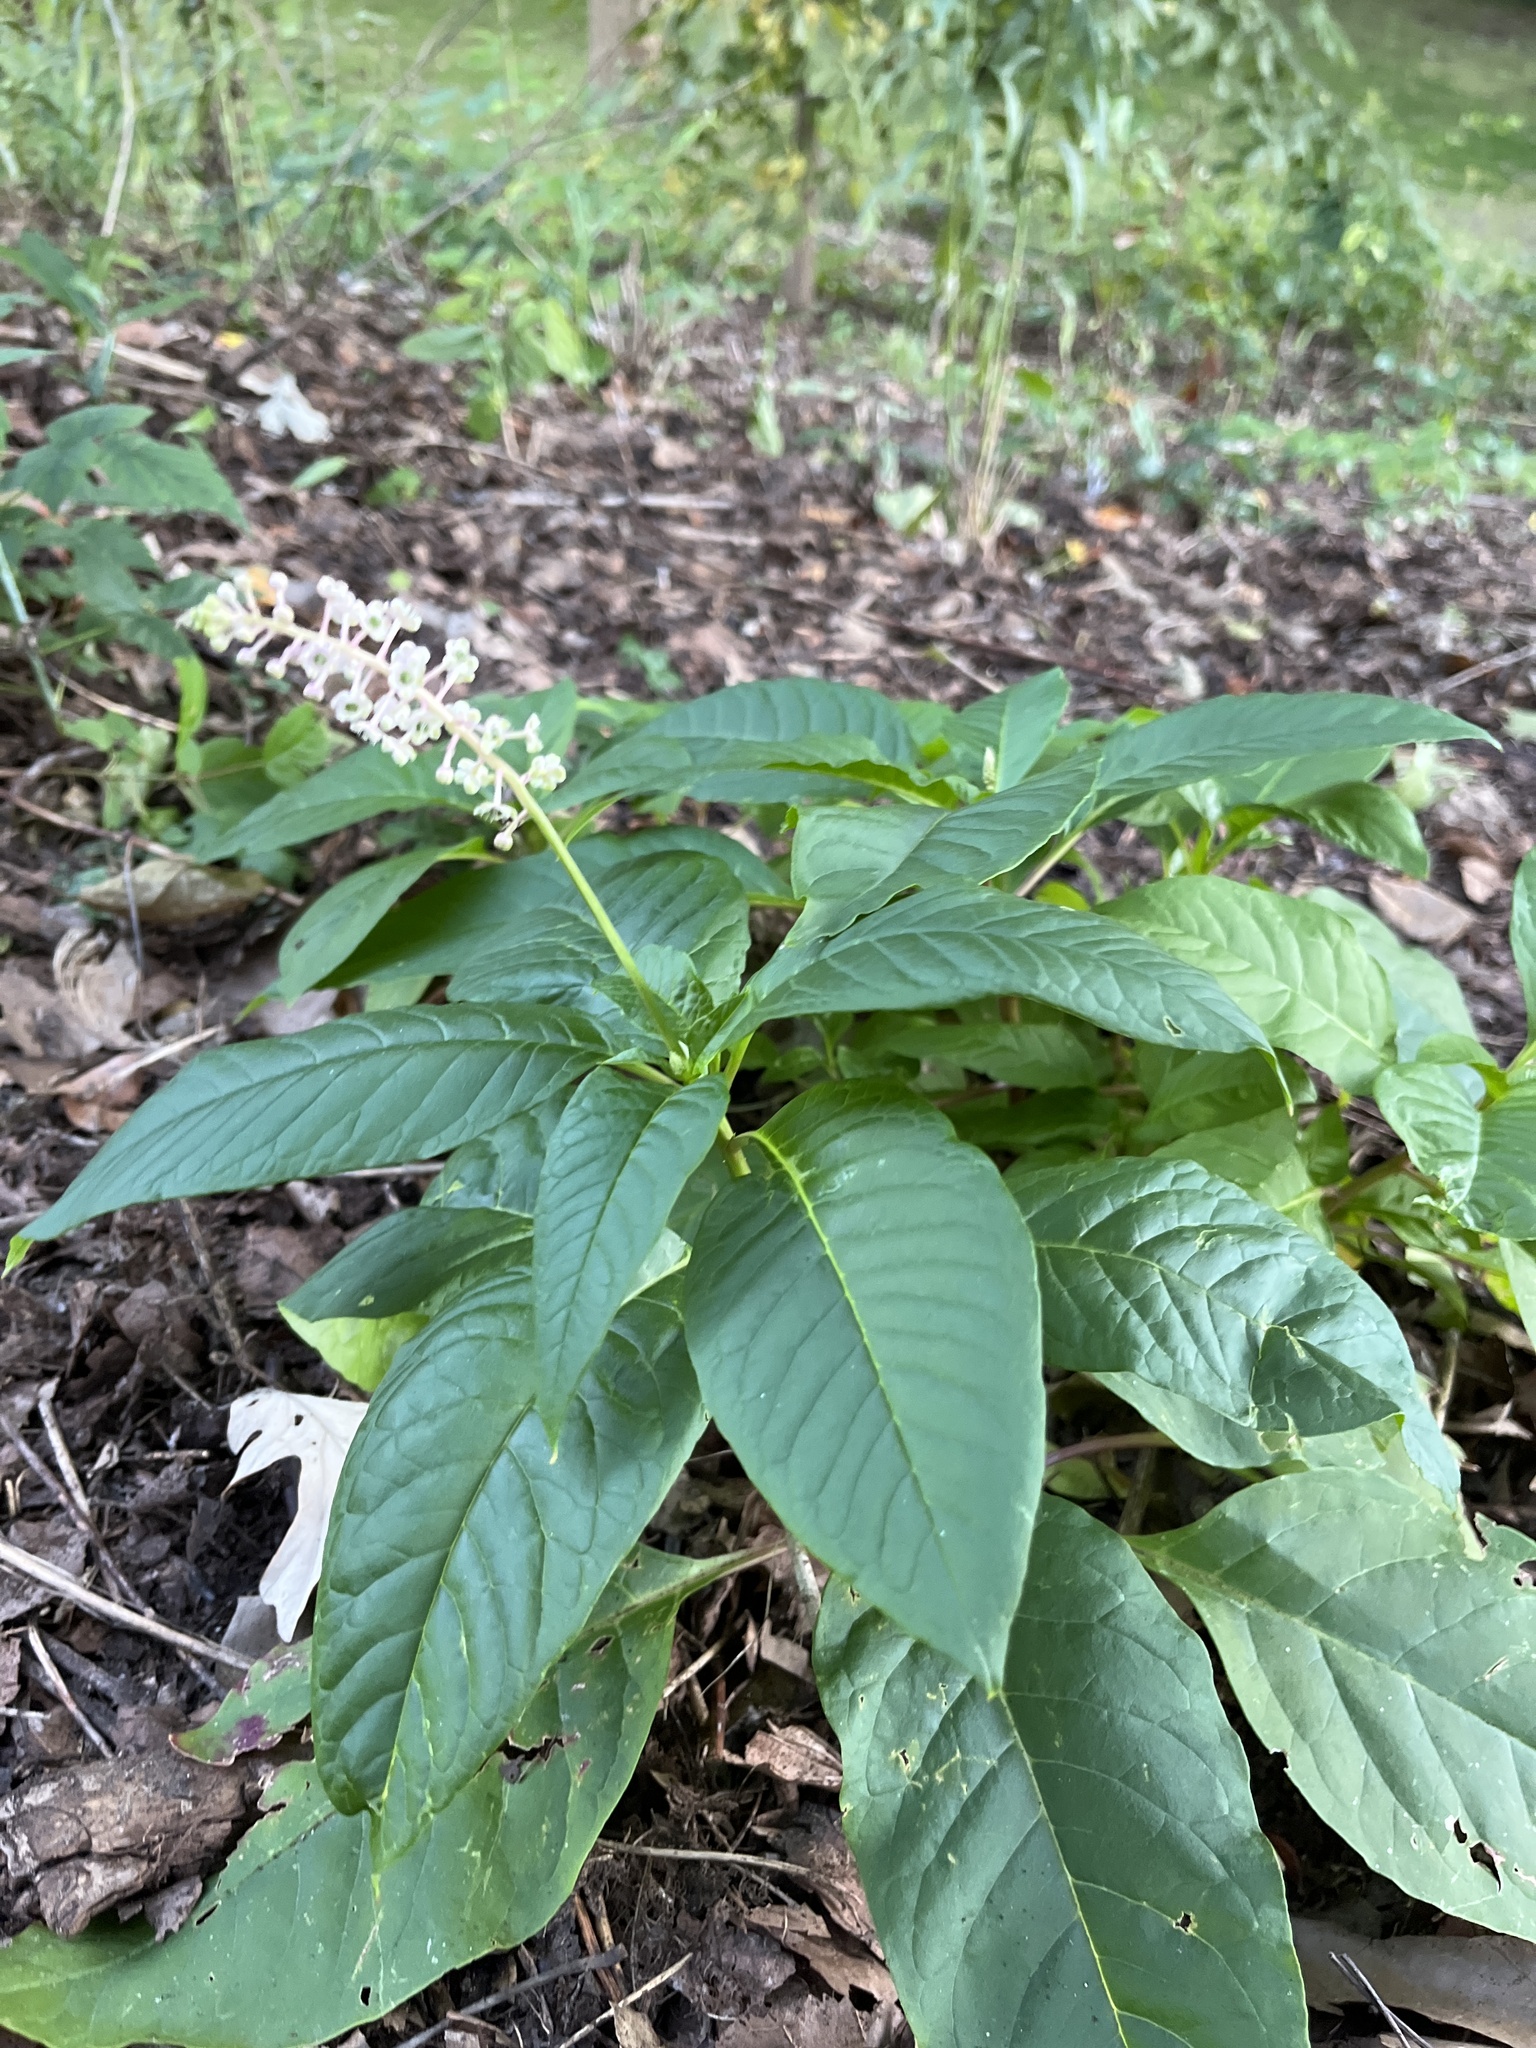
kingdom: Plantae
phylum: Tracheophyta
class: Magnoliopsida
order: Caryophyllales
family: Phytolaccaceae
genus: Phytolacca
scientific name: Phytolacca americana
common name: American pokeweed
